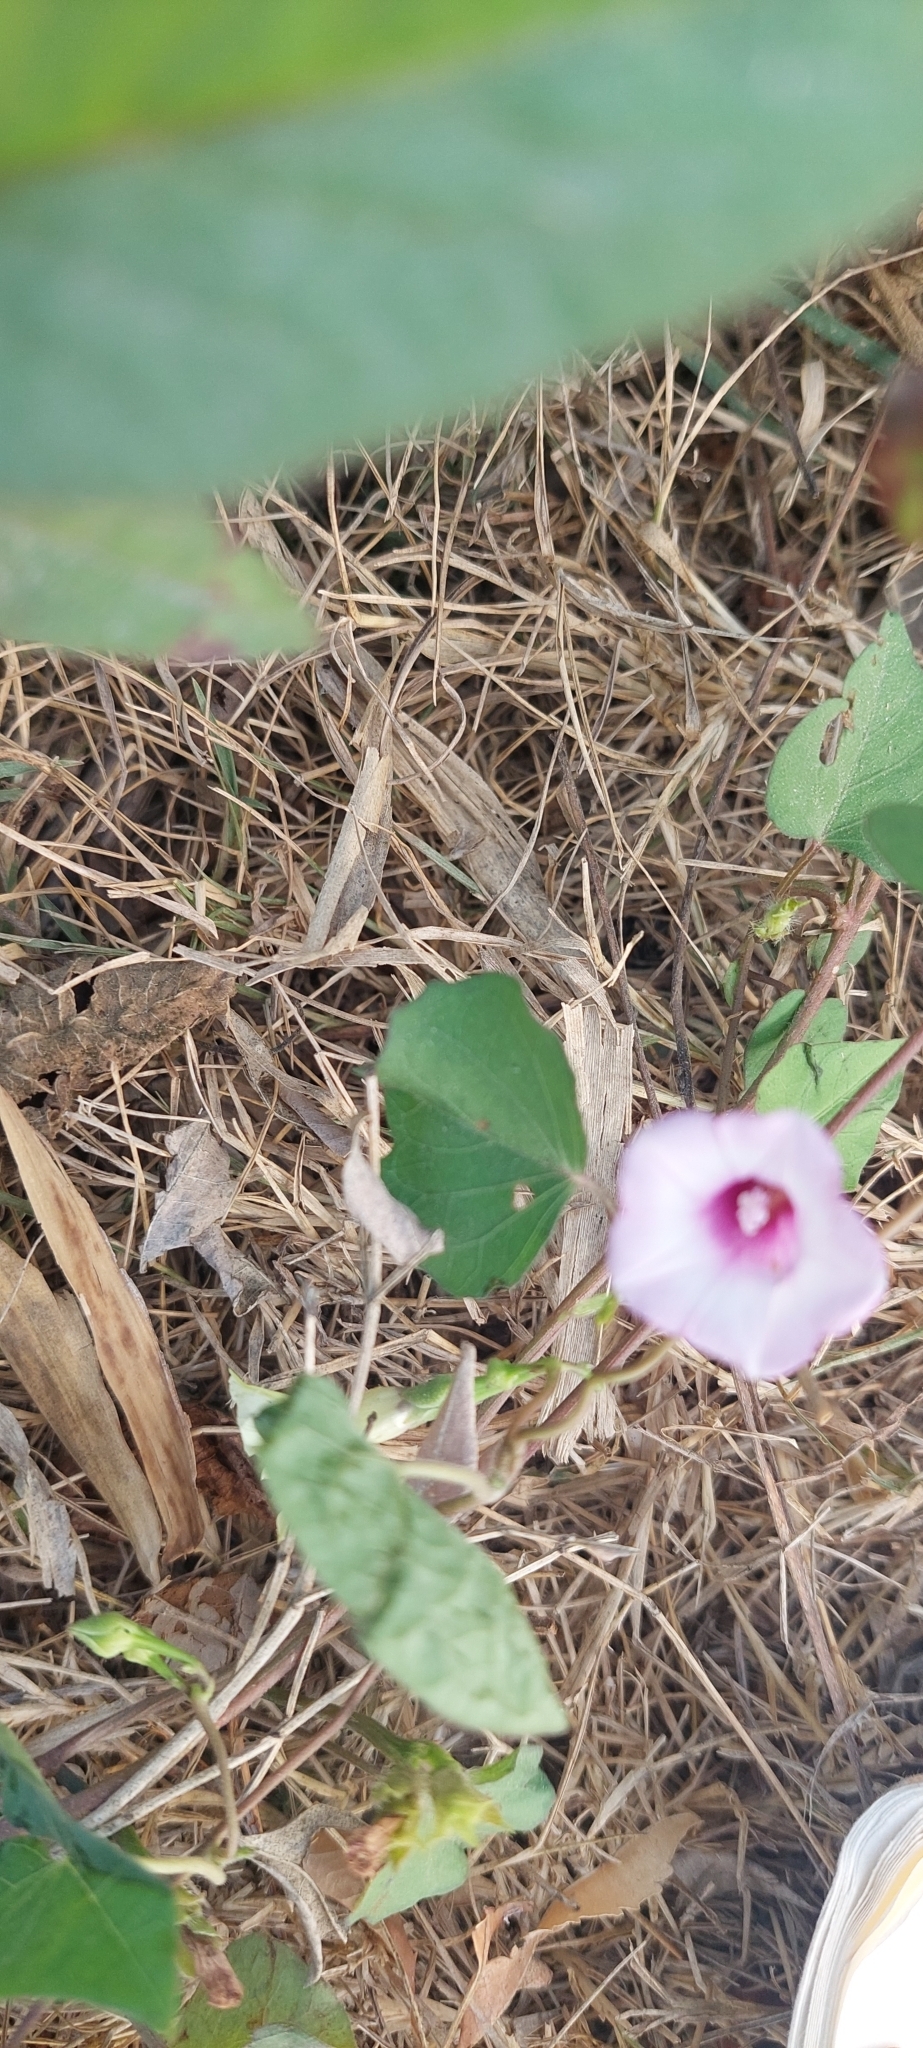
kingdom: Plantae
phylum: Tracheophyta
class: Magnoliopsida
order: Solanales
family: Convolvulaceae
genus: Ipomoea
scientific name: Ipomoea triloba
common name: Little-bell
